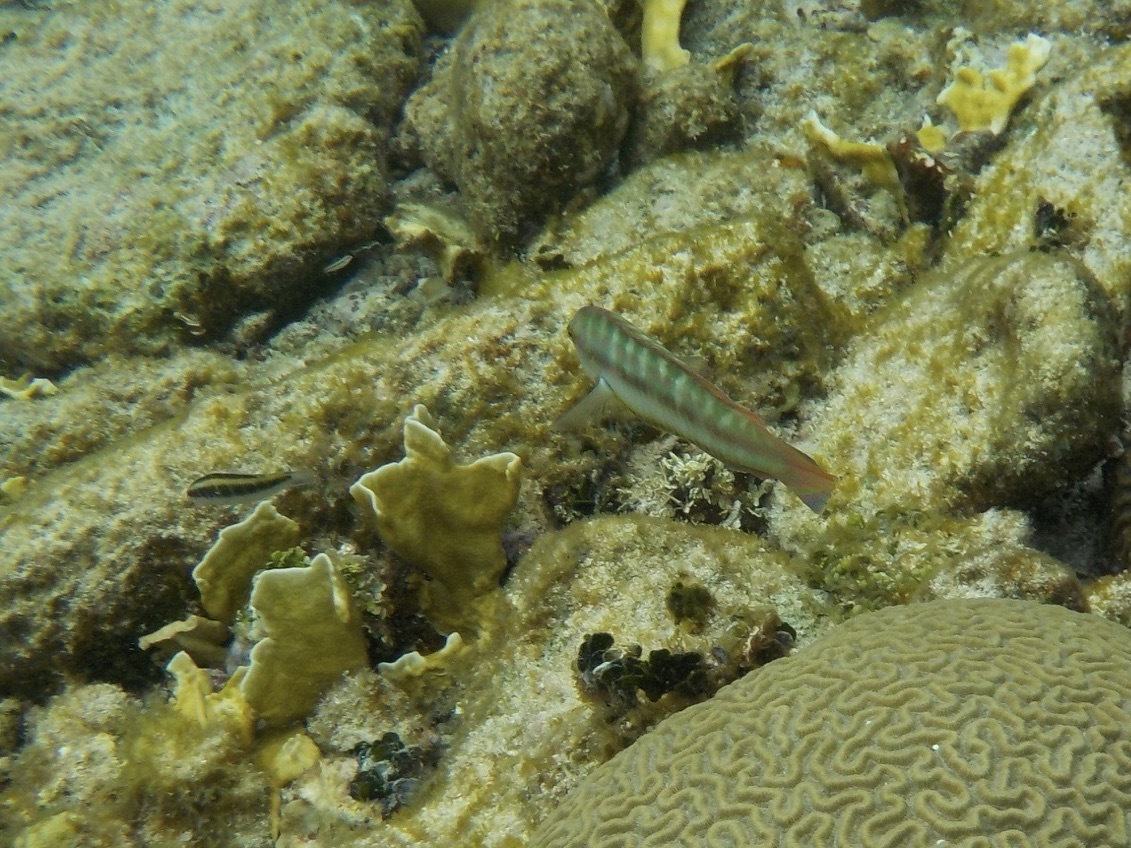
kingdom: Animalia
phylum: Chordata
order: Perciformes
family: Labridae
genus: Halichoeres
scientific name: Halichoeres bivittatus
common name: Slippery dick
